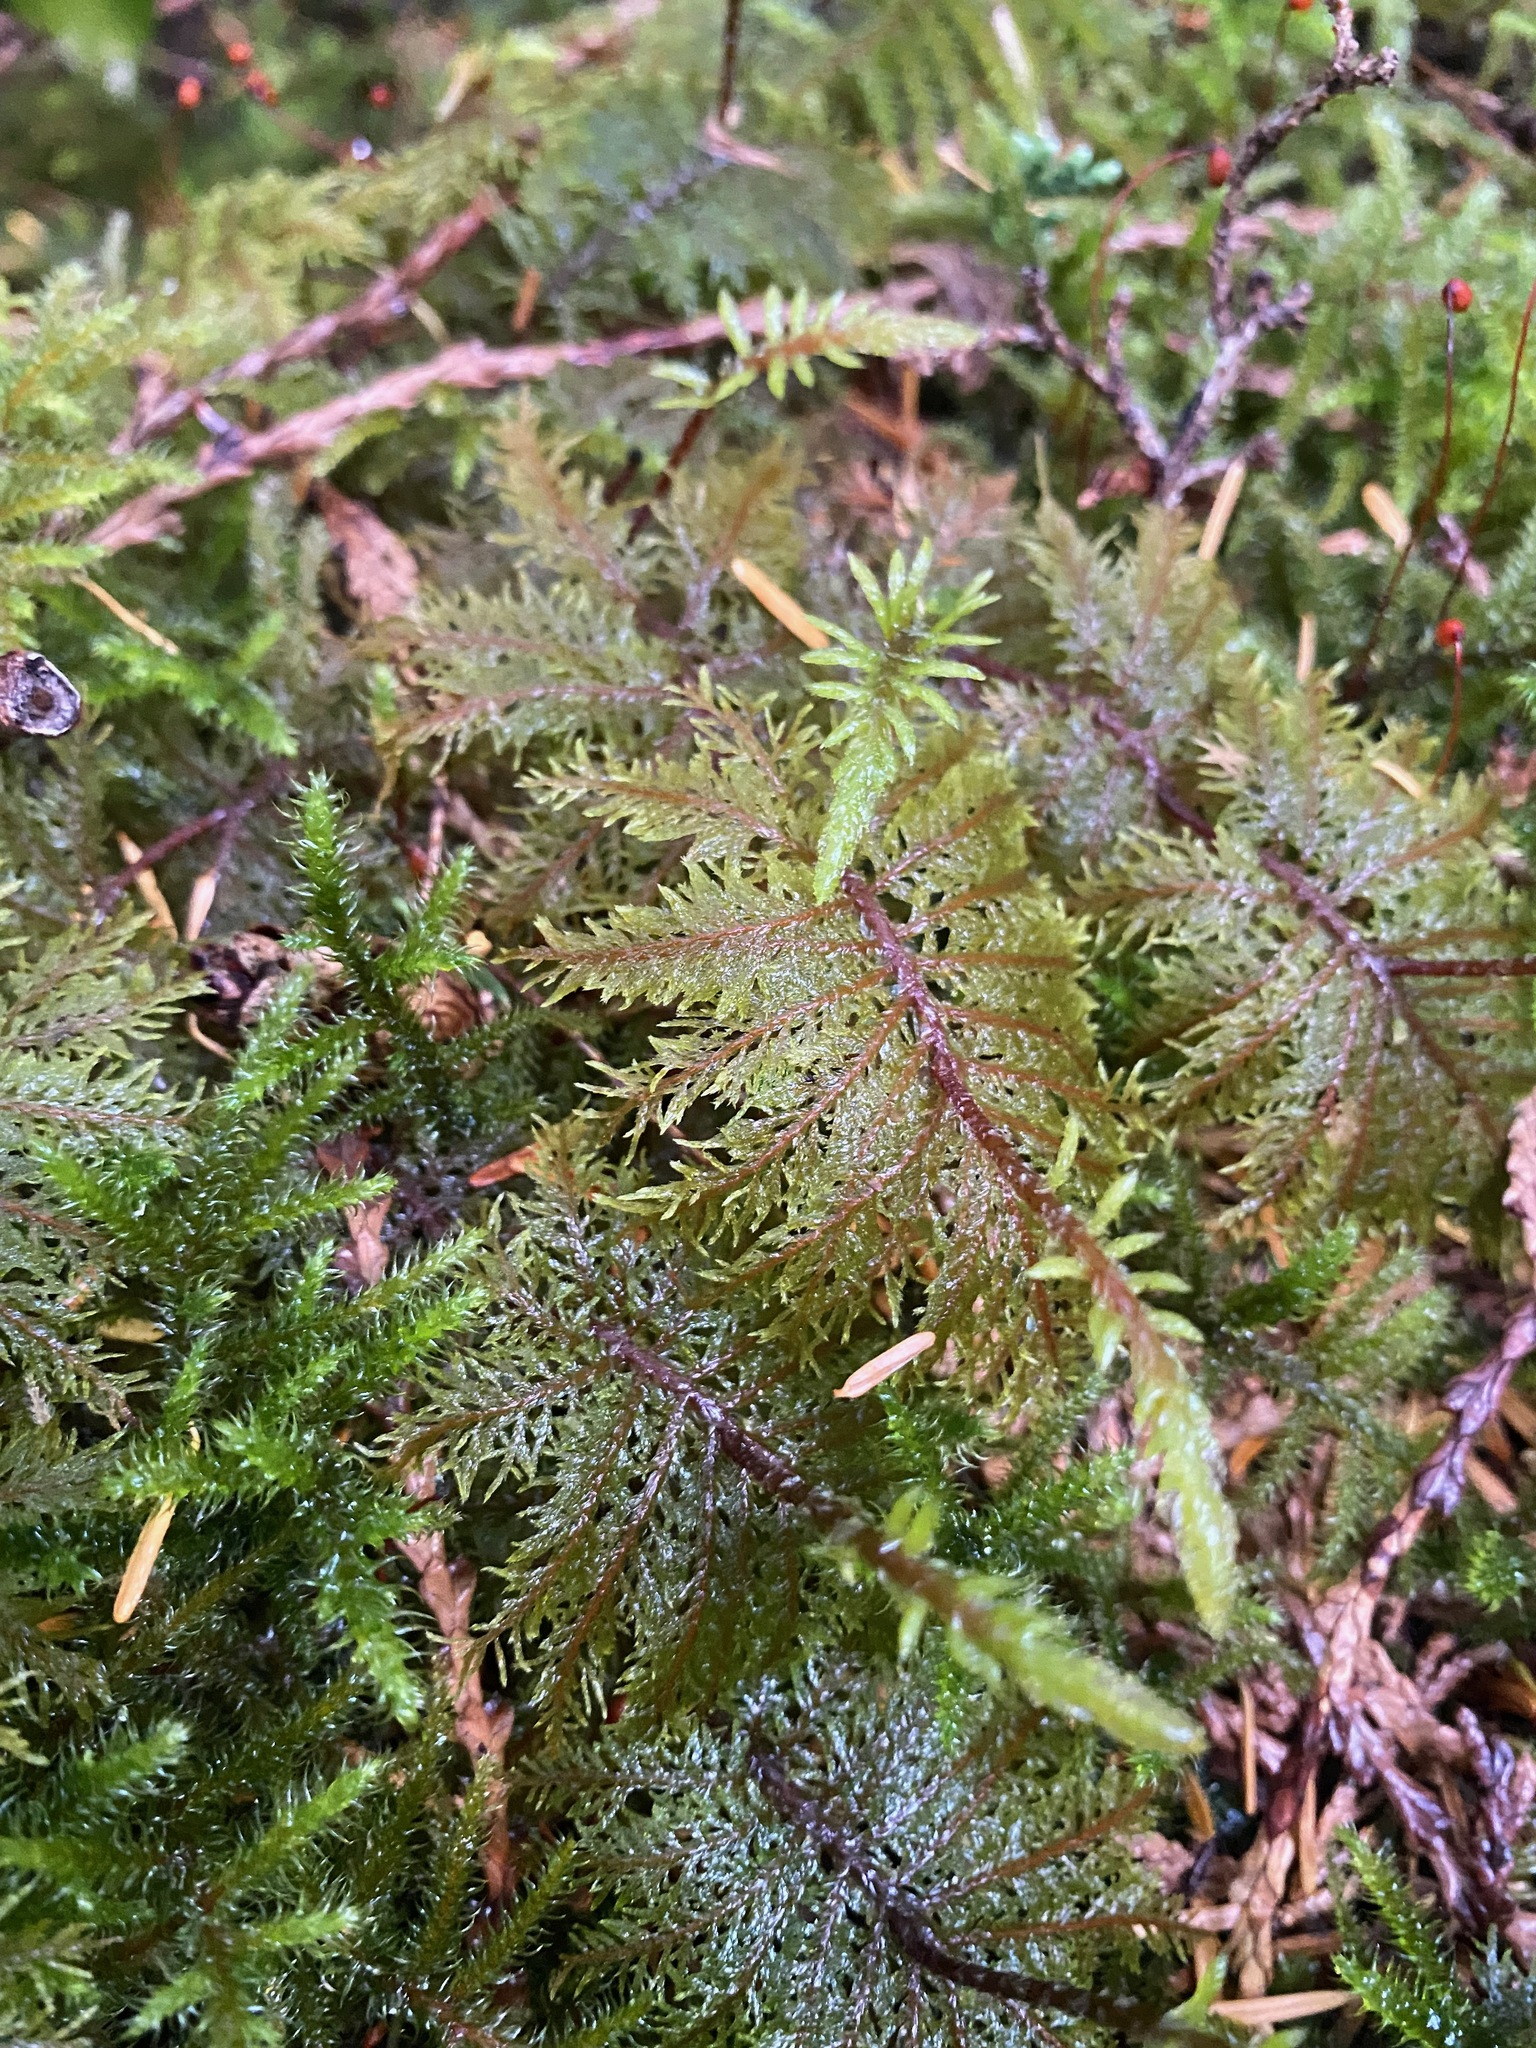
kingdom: Plantae
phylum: Bryophyta
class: Bryopsida
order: Hypnales
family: Hylocomiaceae
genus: Hylocomium
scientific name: Hylocomium splendens
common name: Stairstep moss
